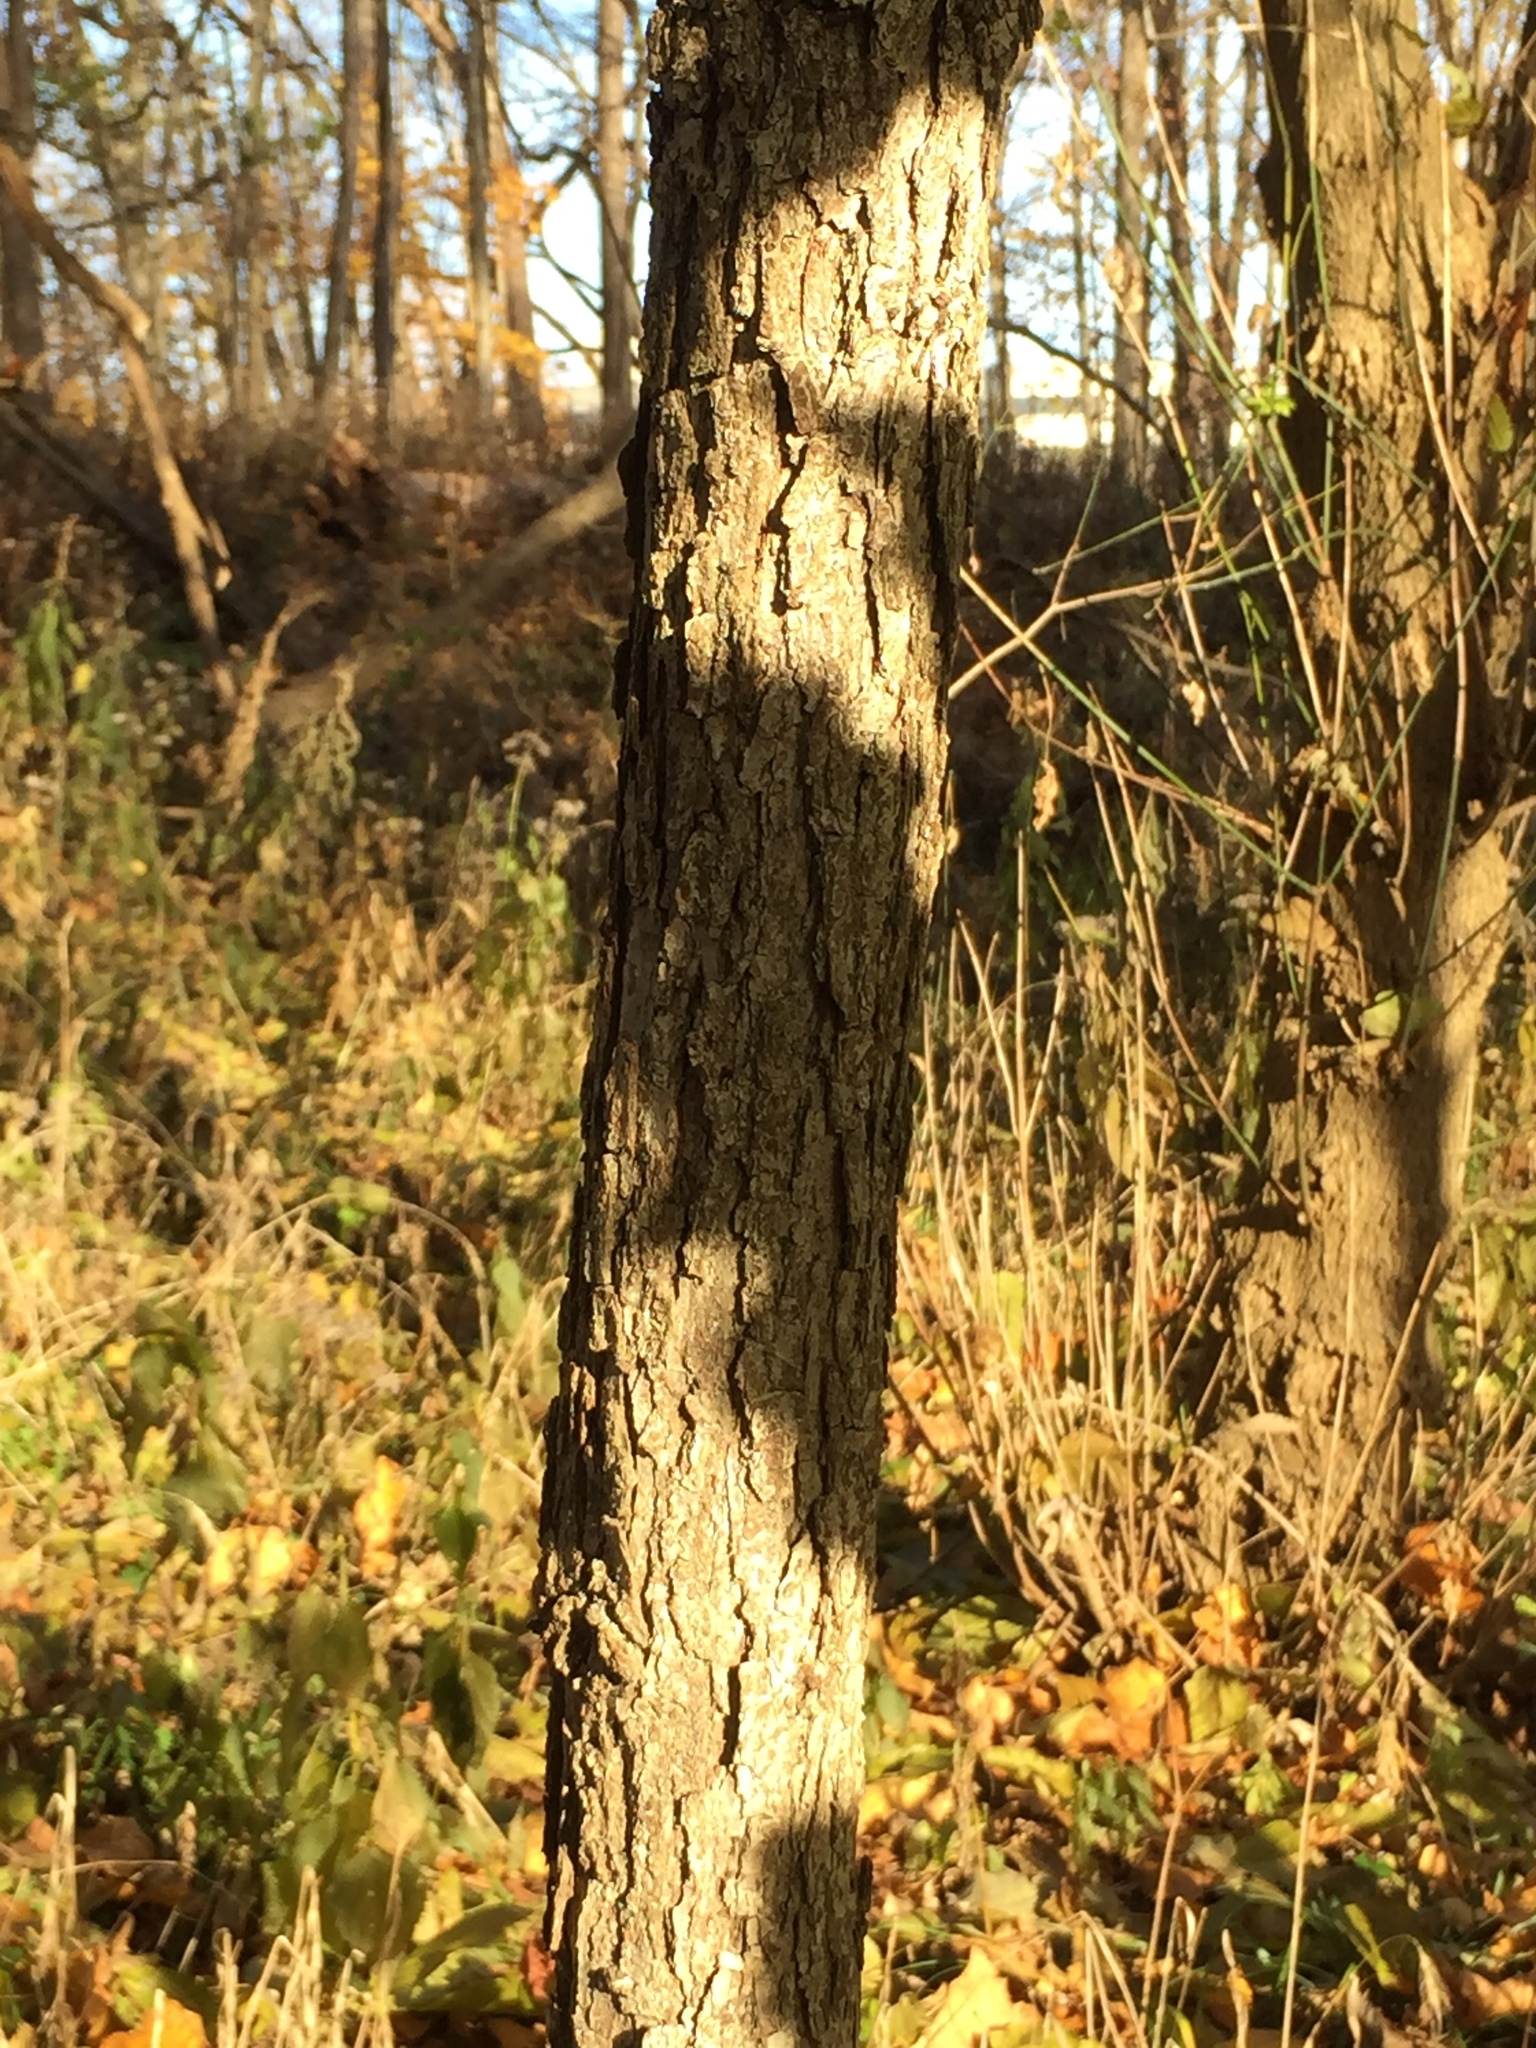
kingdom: Plantae
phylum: Tracheophyta
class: Magnoliopsida
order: Fagales
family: Fagaceae
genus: Quercus
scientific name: Quercus muehlenbergii
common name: Chinkapin oak
